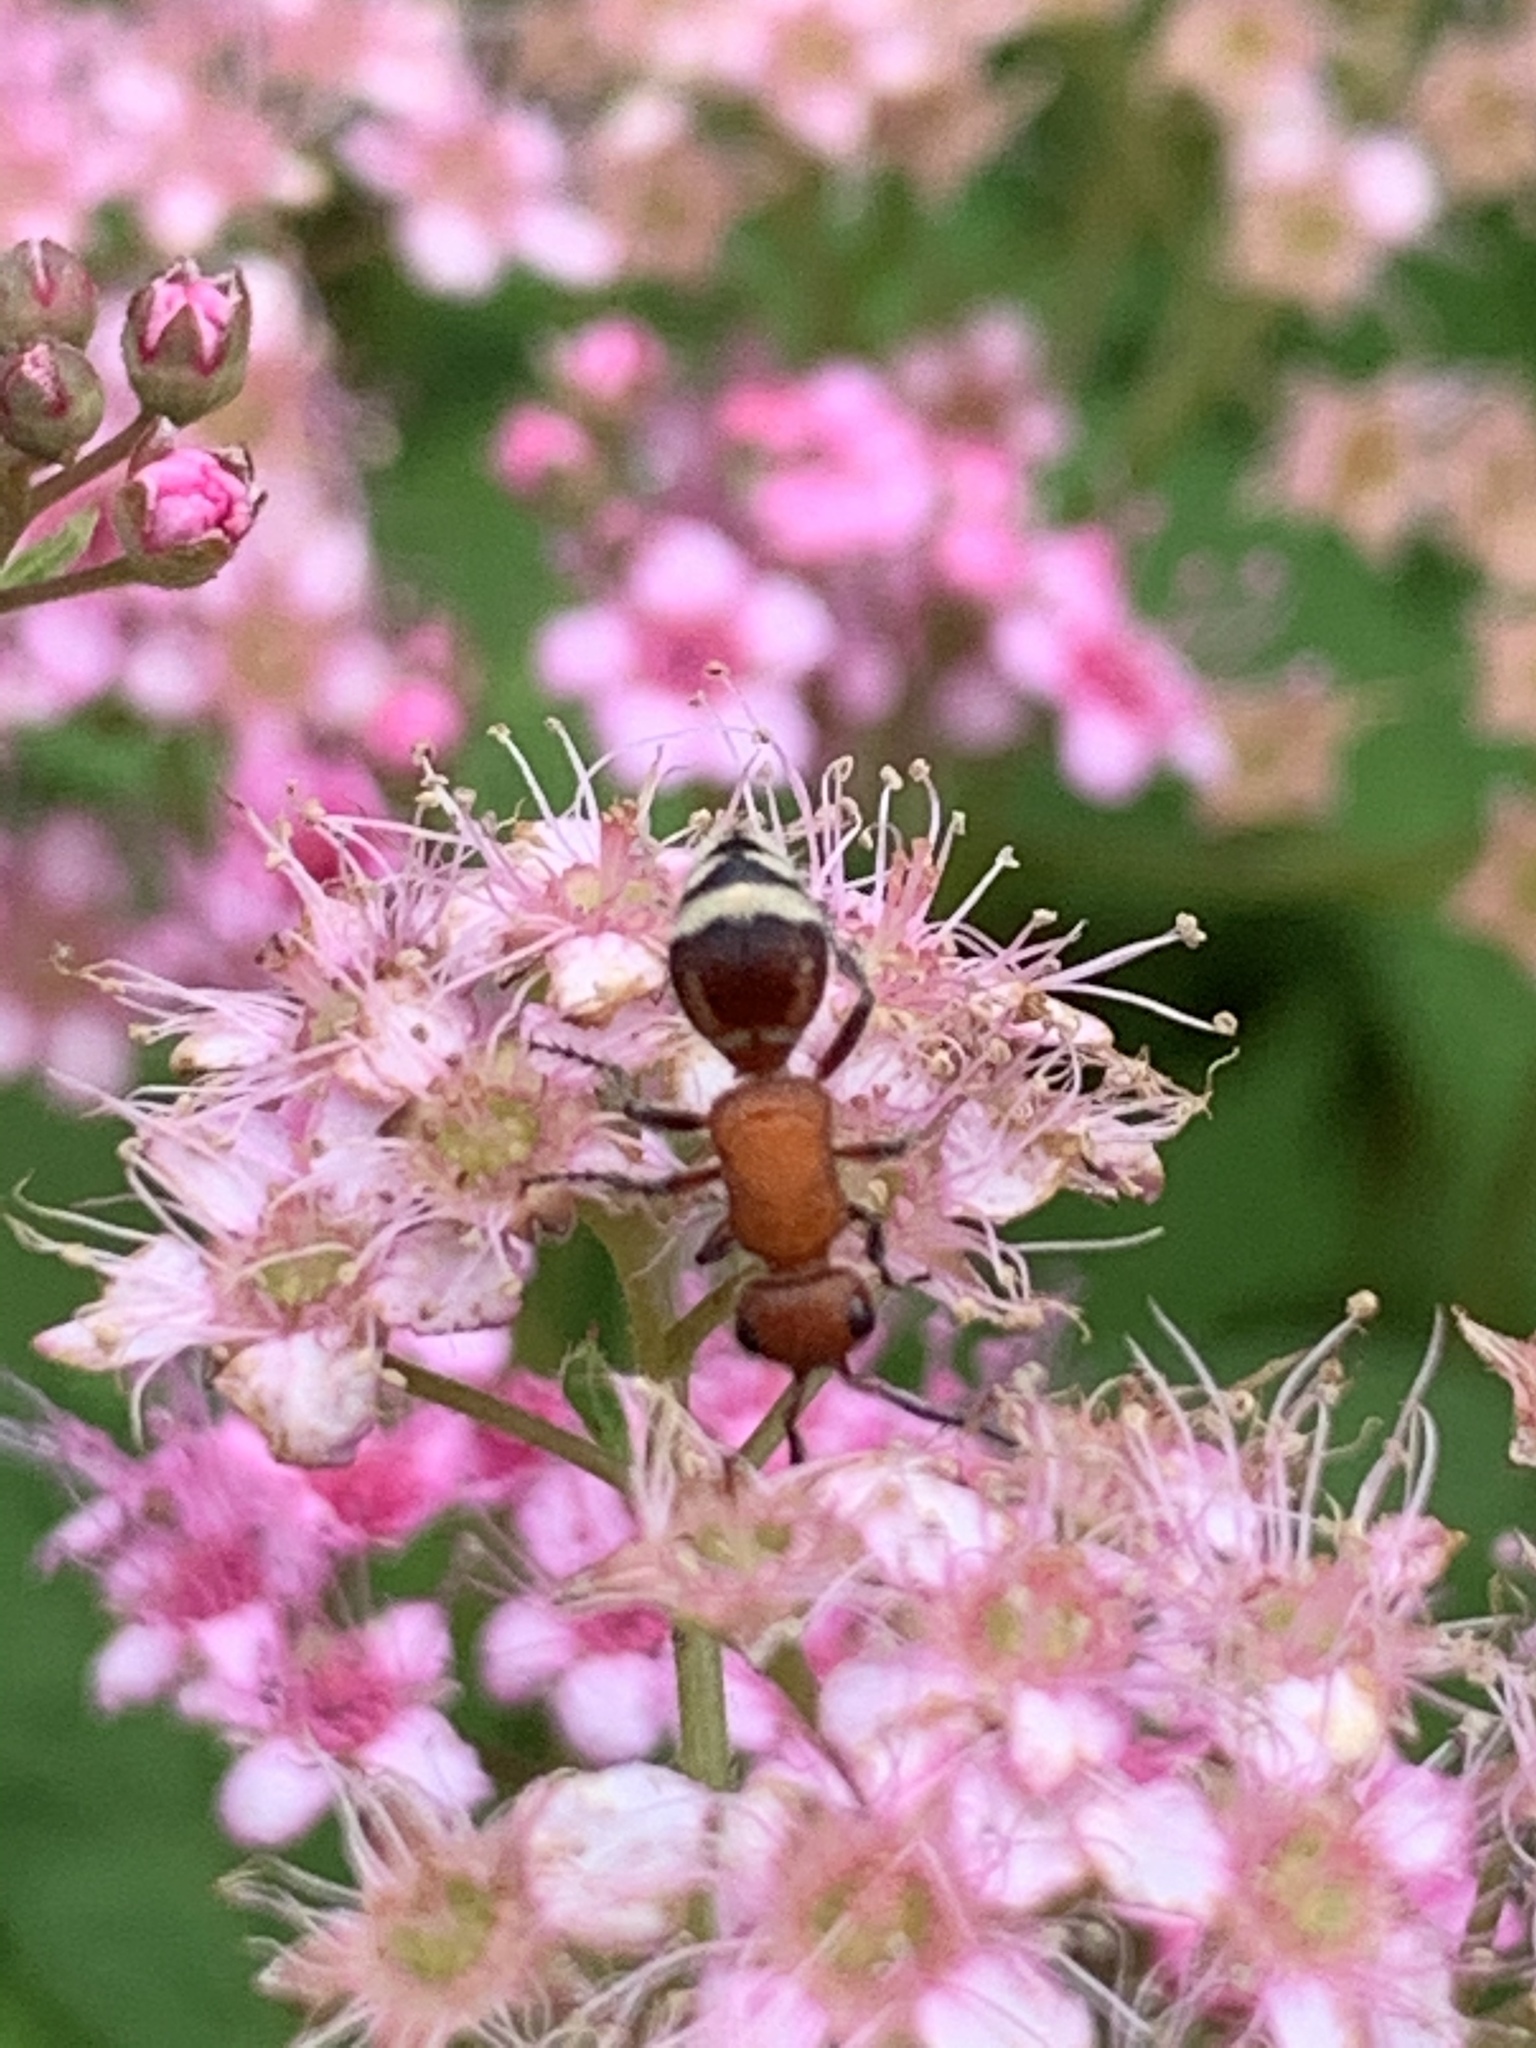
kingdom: Animalia
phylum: Arthropoda
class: Insecta
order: Hymenoptera
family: Mutillidae
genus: Timulla
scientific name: Timulla
